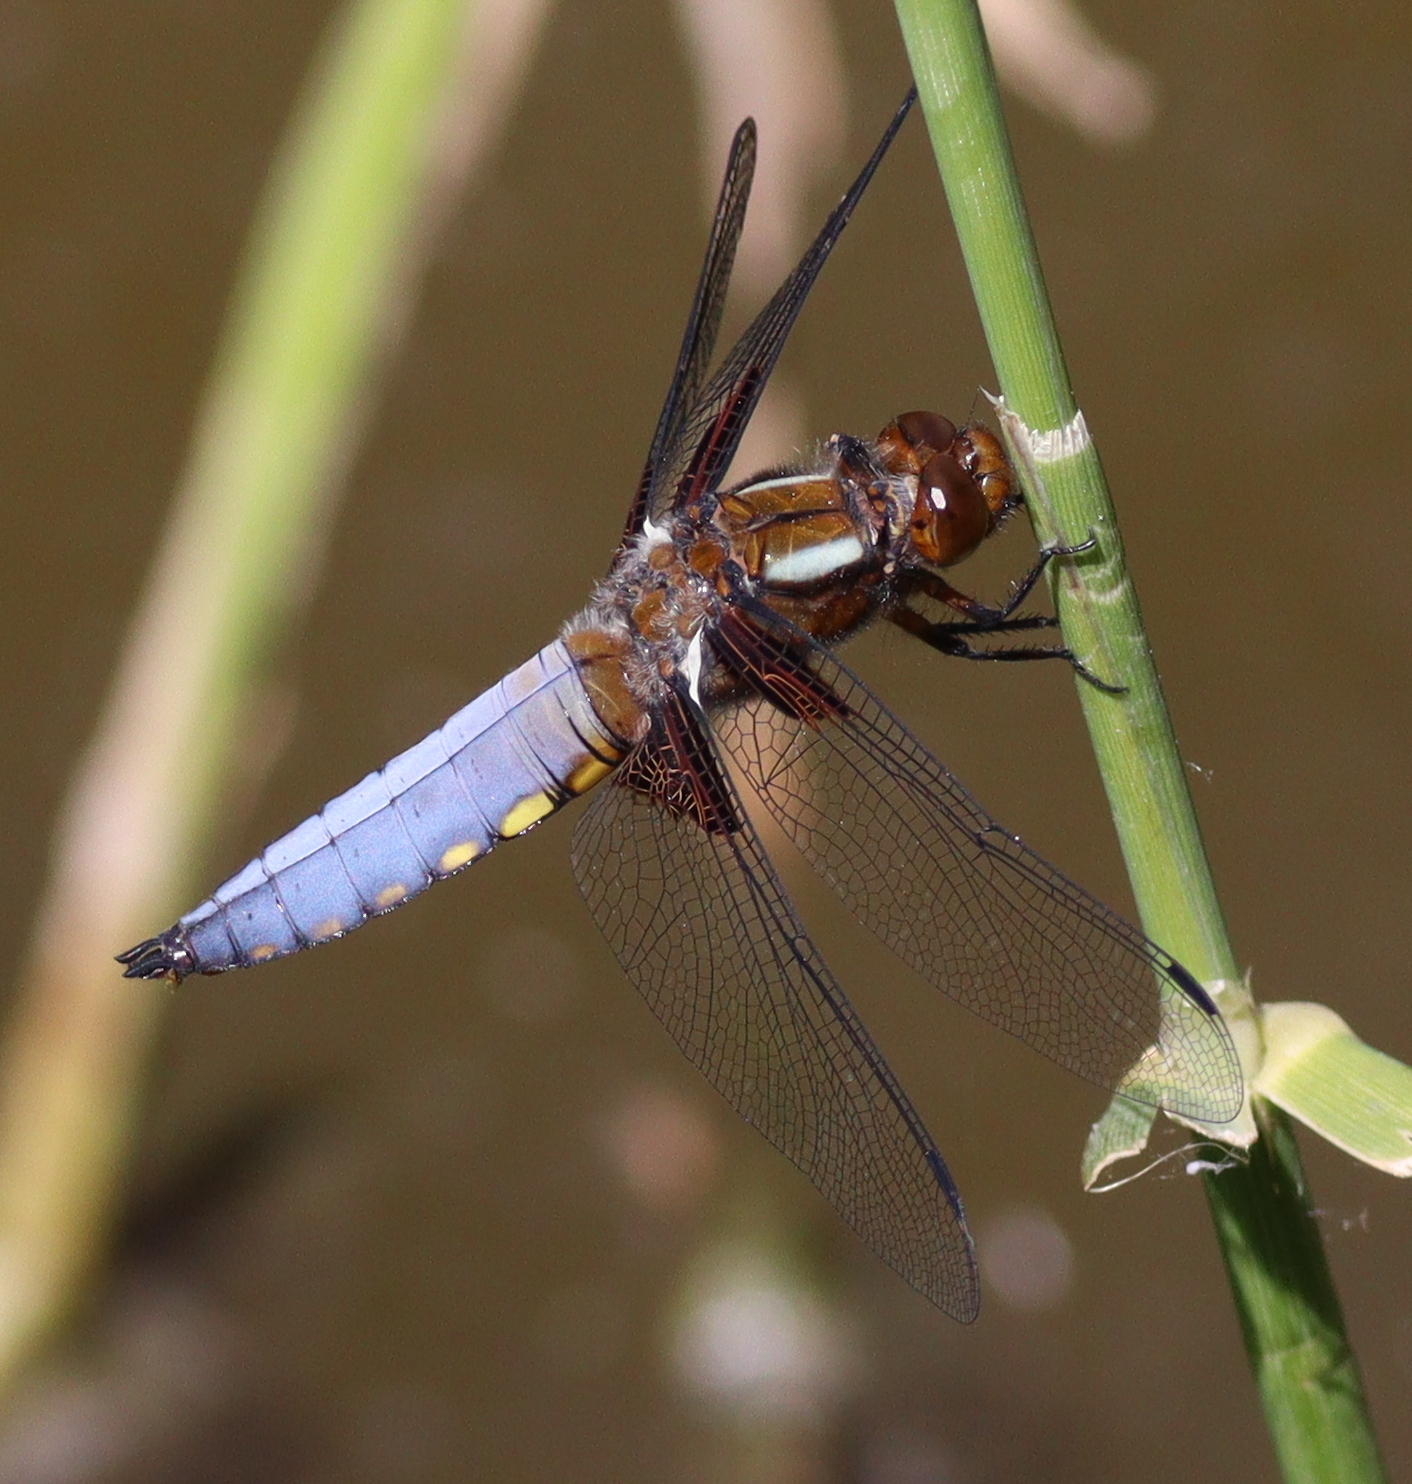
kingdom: Animalia
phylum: Arthropoda
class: Insecta
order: Odonata
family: Libellulidae
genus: Libellula
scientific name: Libellula depressa
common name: Broad-bodied chaser
